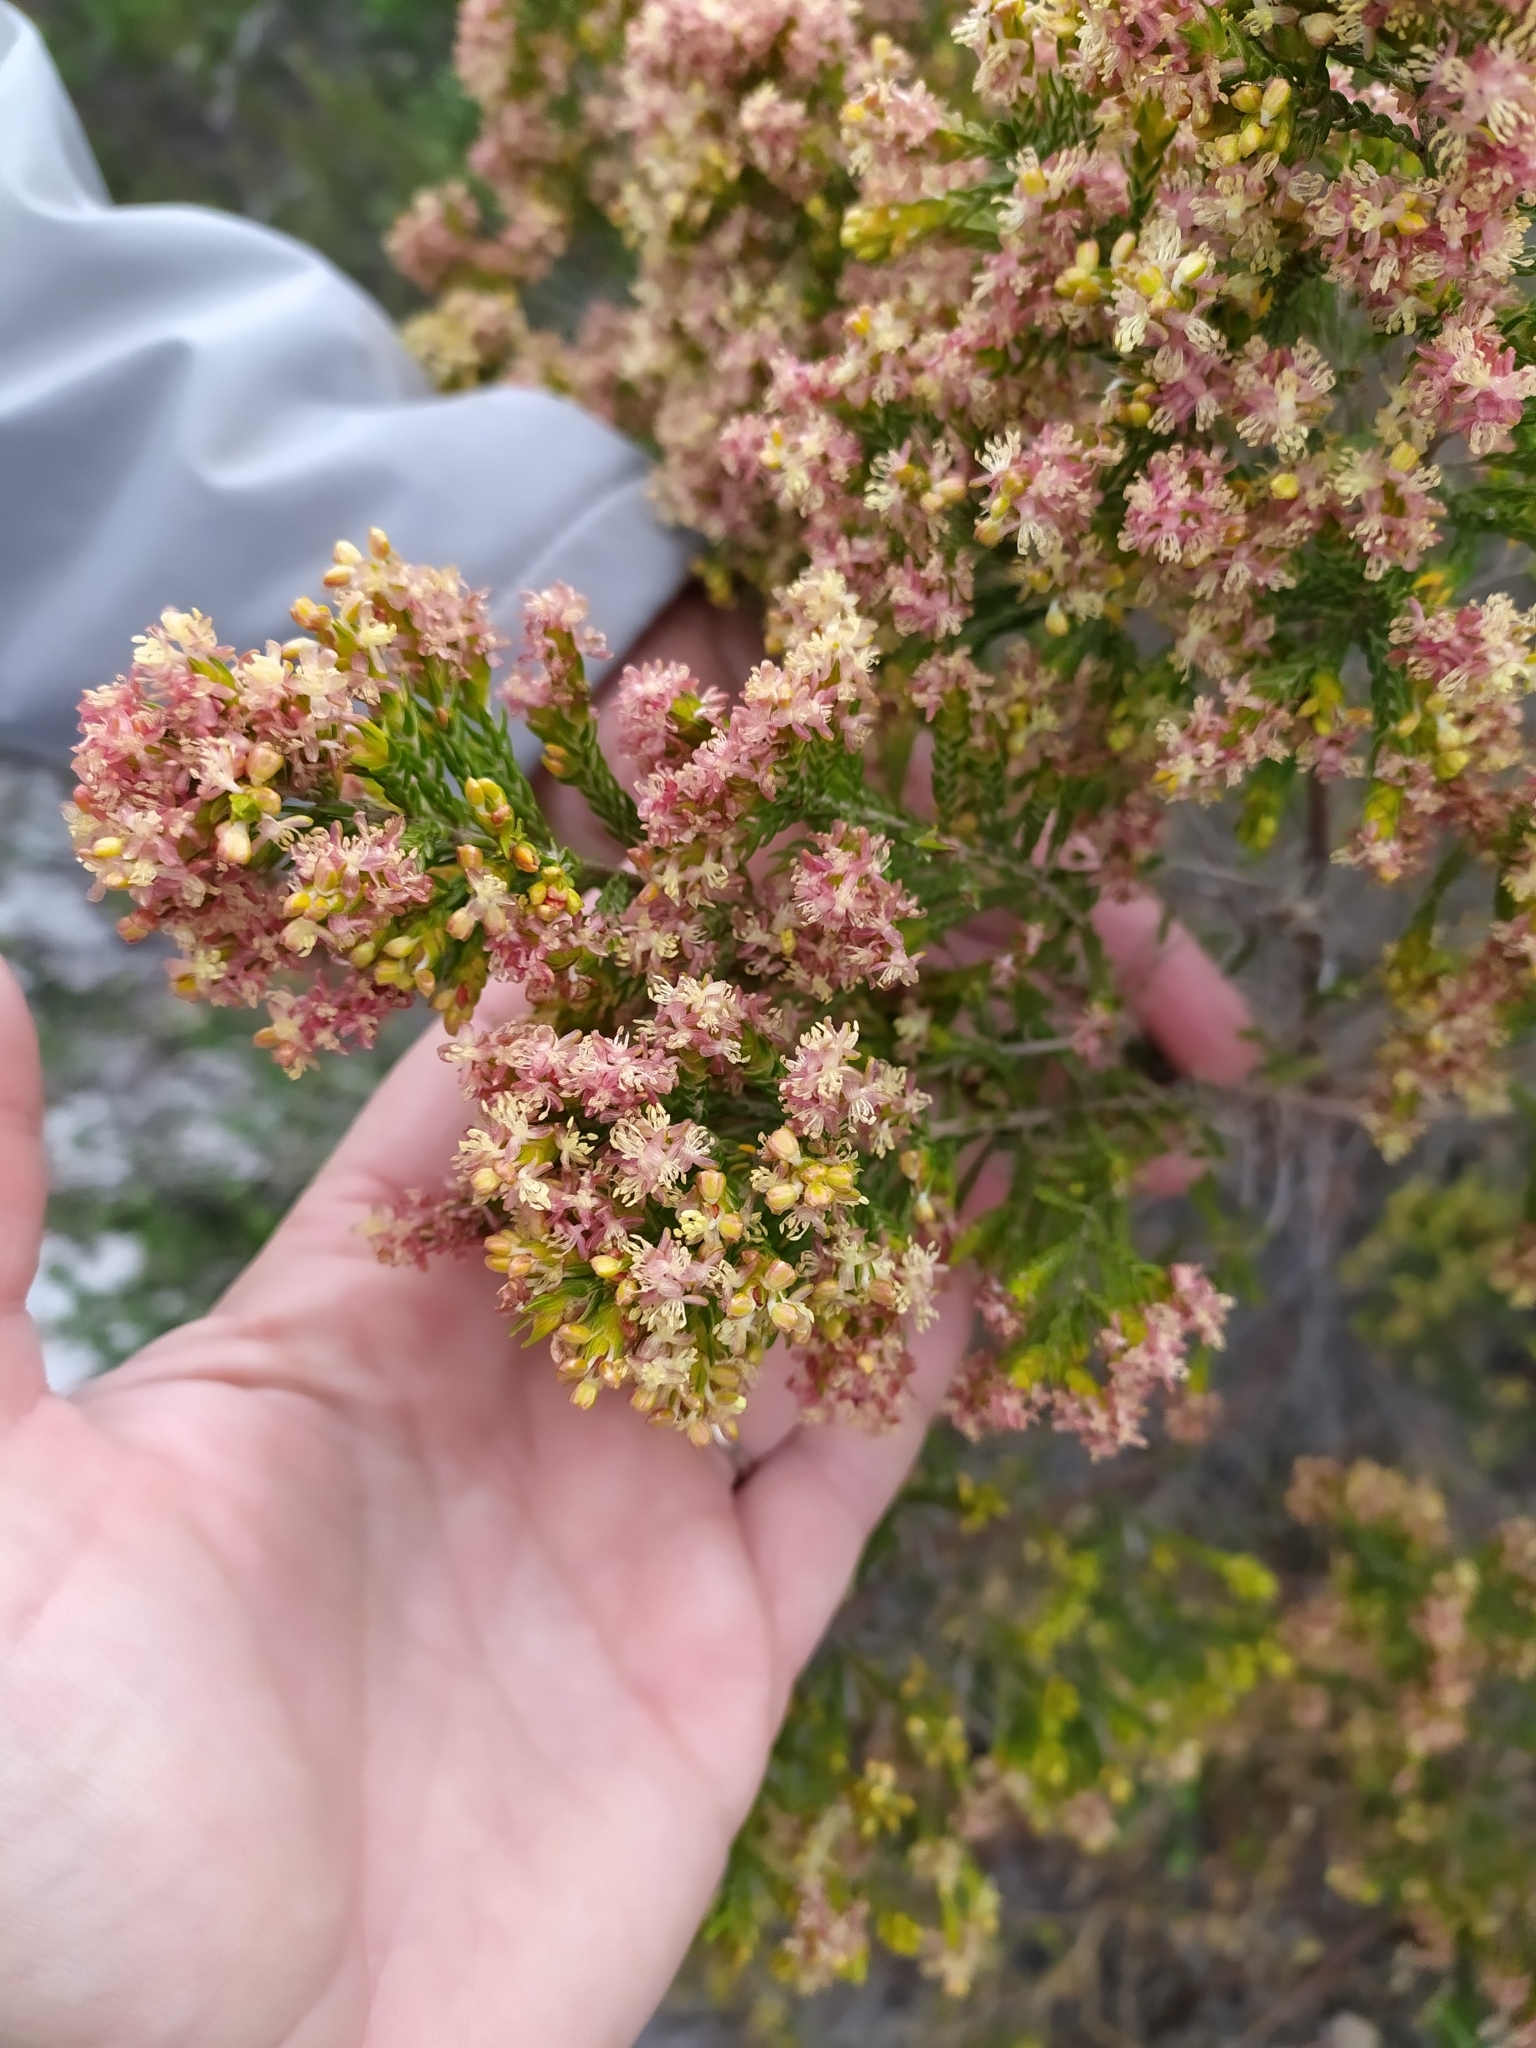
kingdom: Plantae
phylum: Tracheophyta
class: Magnoliopsida
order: Malvales
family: Thymelaeaceae
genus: Passerina
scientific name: Passerina corymbosa
